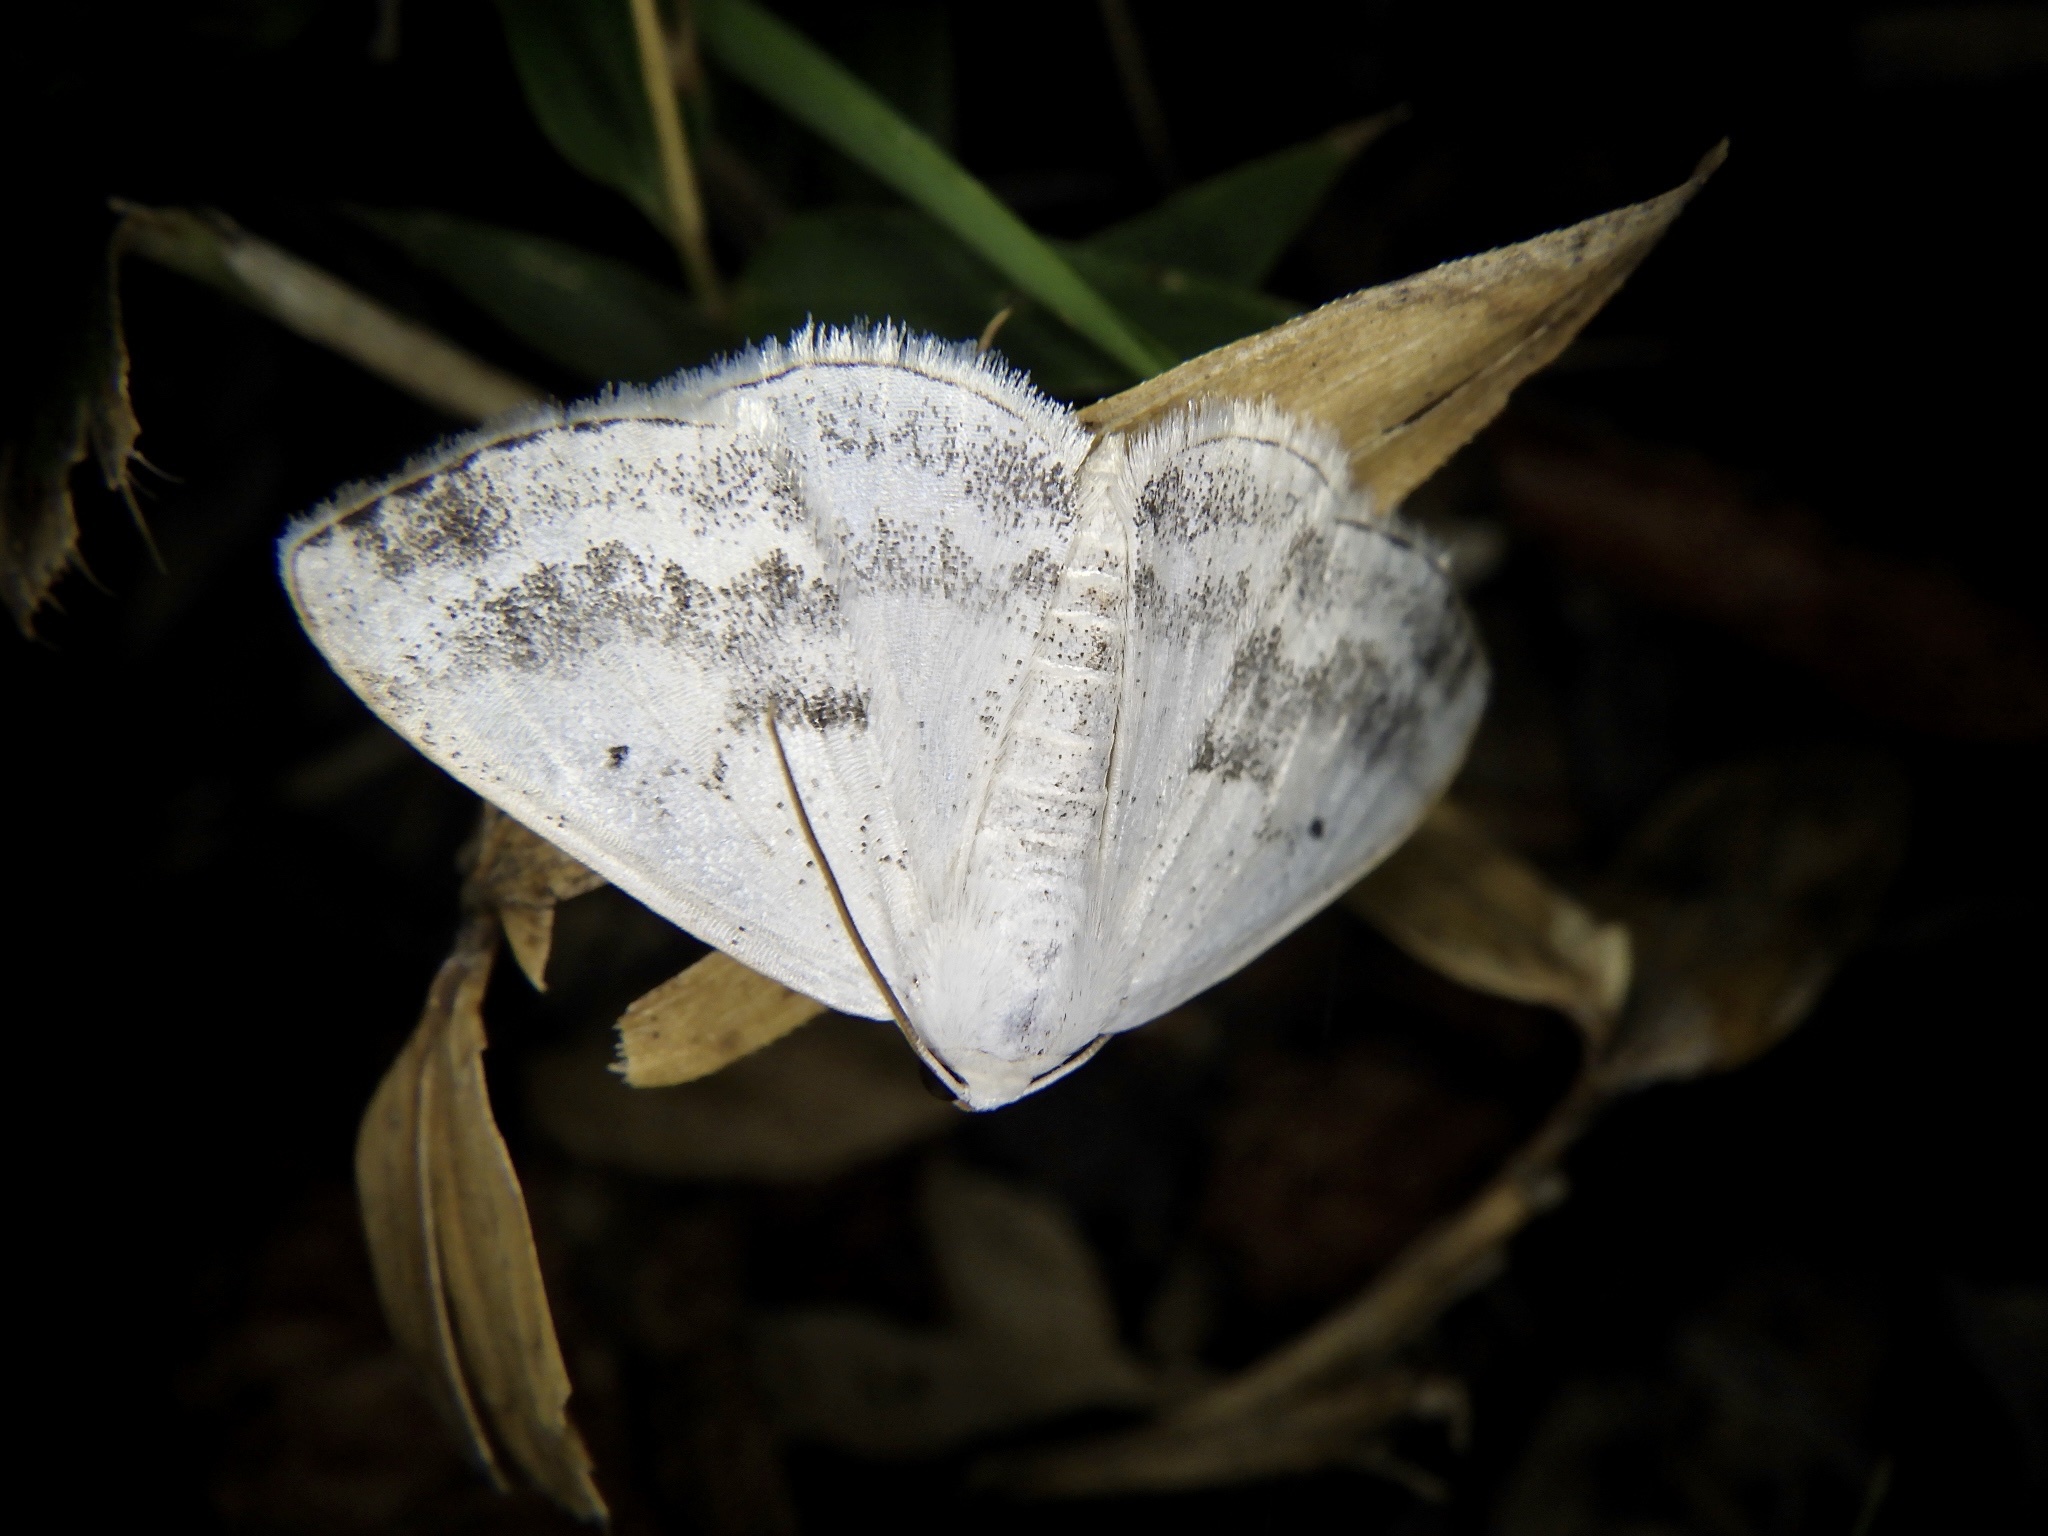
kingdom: Animalia
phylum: Arthropoda
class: Insecta
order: Lepidoptera
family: Geometridae
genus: Lomographa
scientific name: Lomographa temerata
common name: Clouded silver
